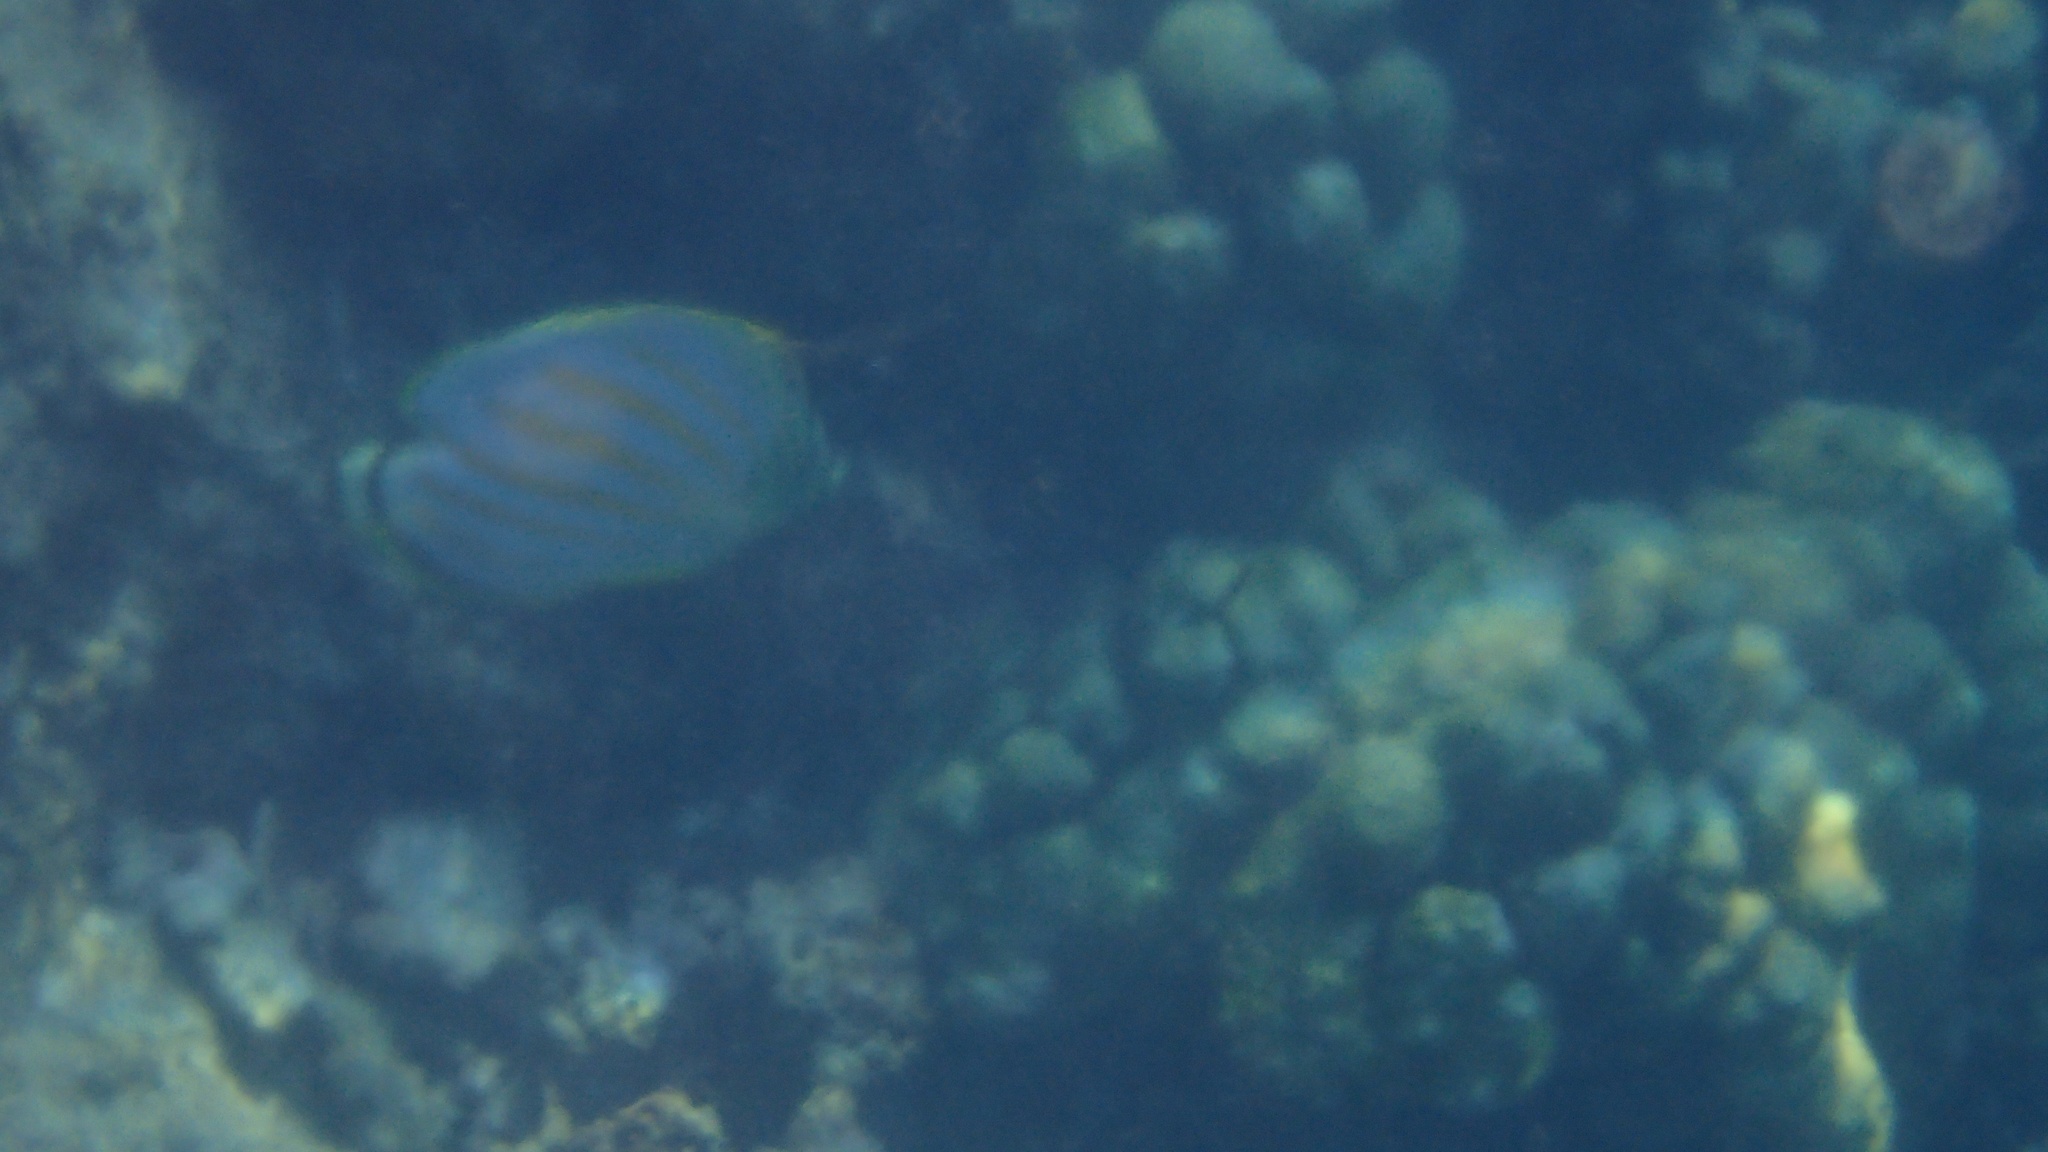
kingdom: Animalia
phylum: Chordata
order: Perciformes
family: Chaetodontidae
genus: Chaetodon
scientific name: Chaetodon ornatissimus
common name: Ornate butterflyfish
